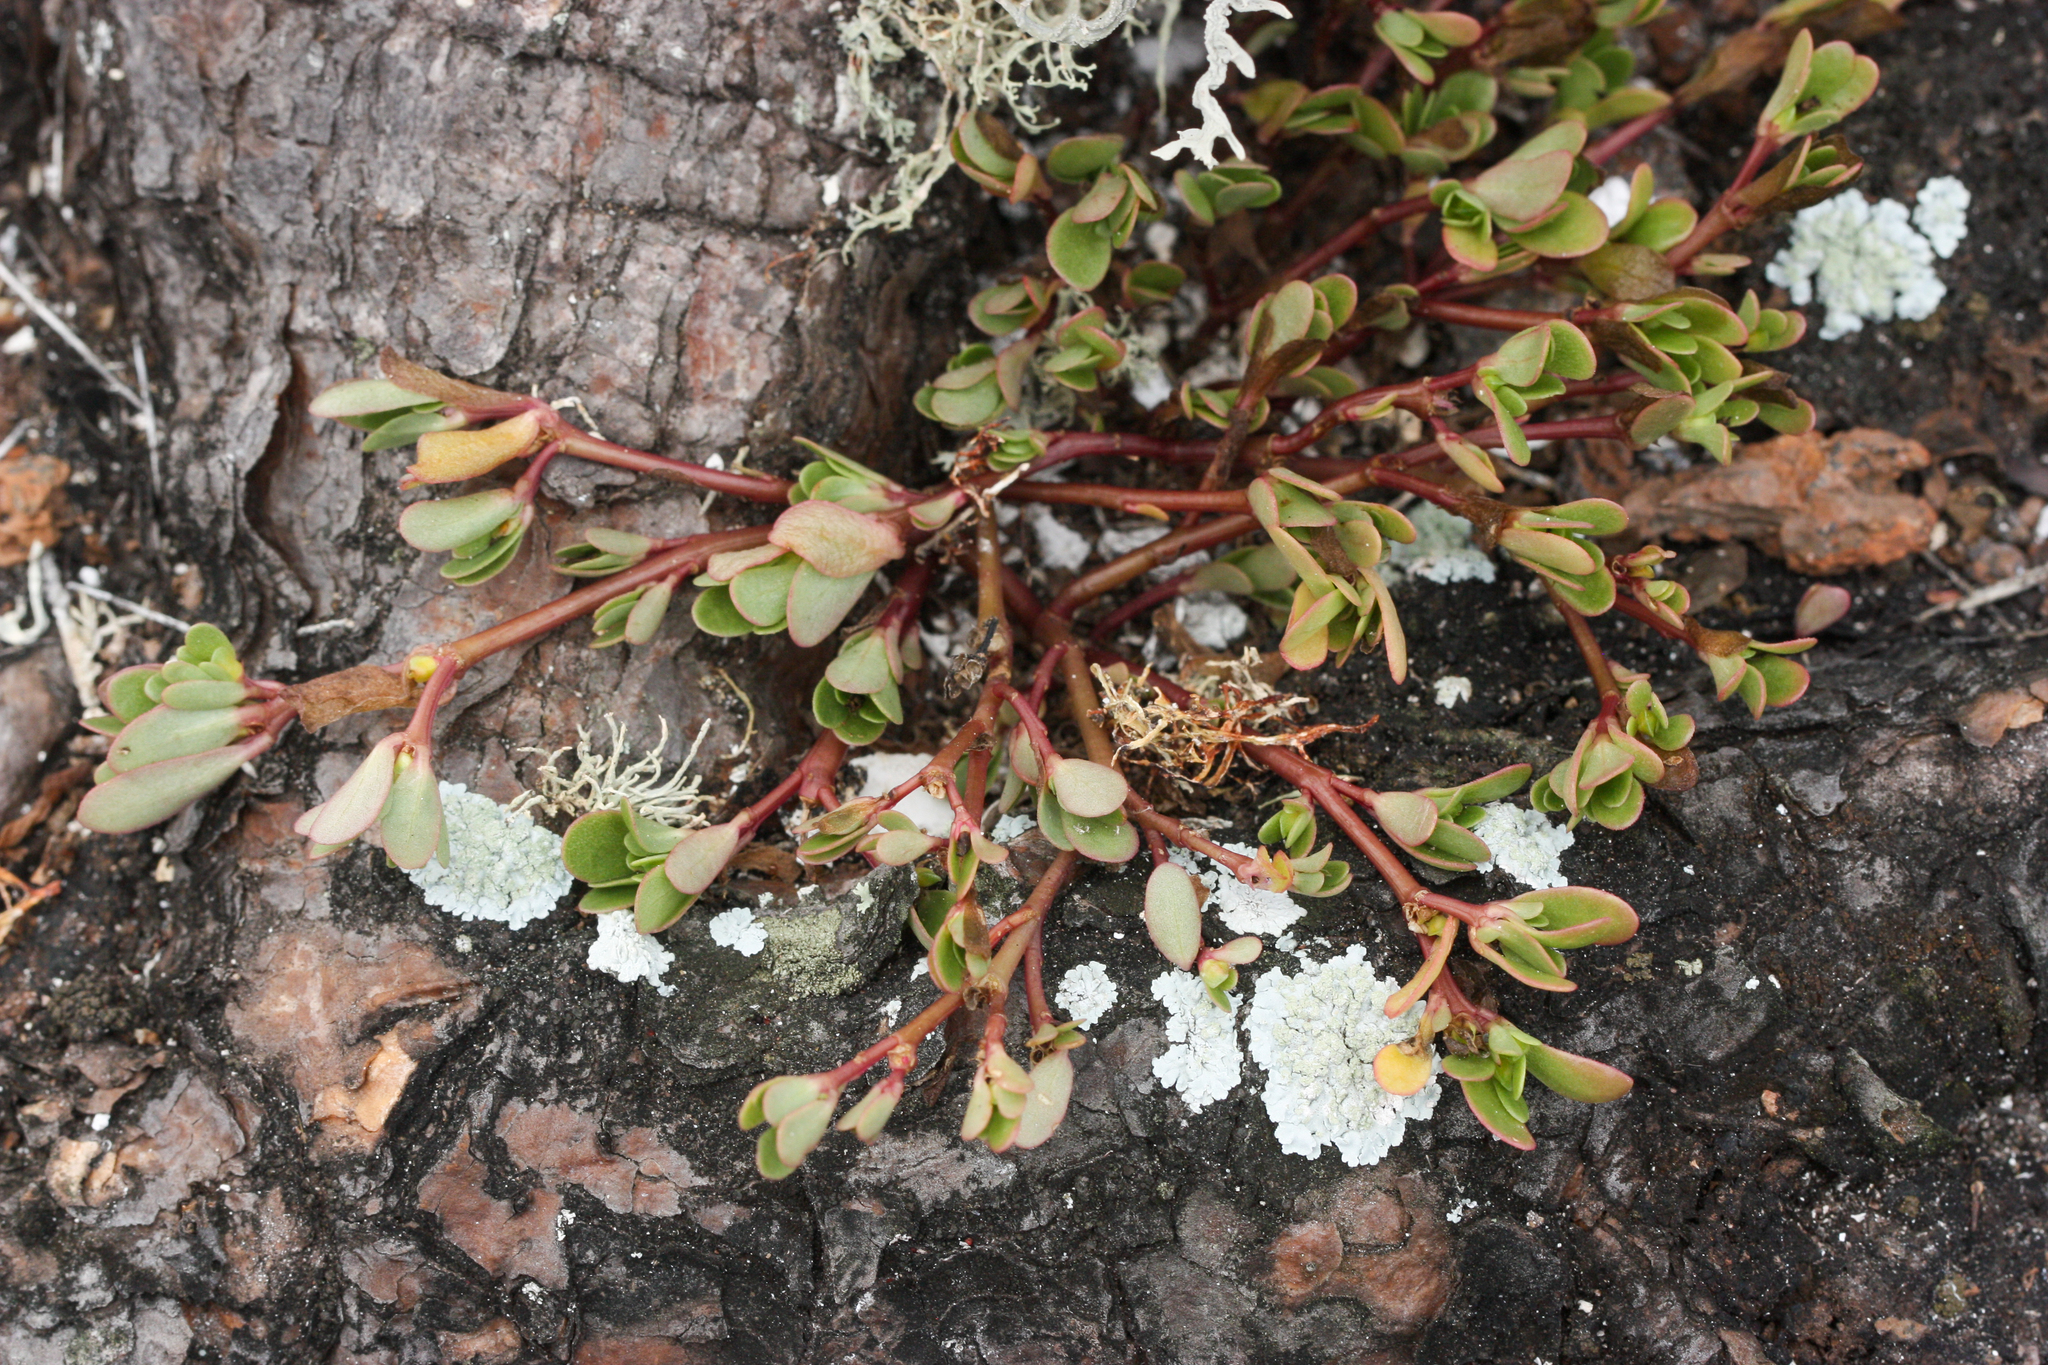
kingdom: Plantae
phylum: Tracheophyta
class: Magnoliopsida
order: Caryophyllales
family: Portulacaceae
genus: Portulaca
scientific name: Portulaca oleracea
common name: Common purslane
